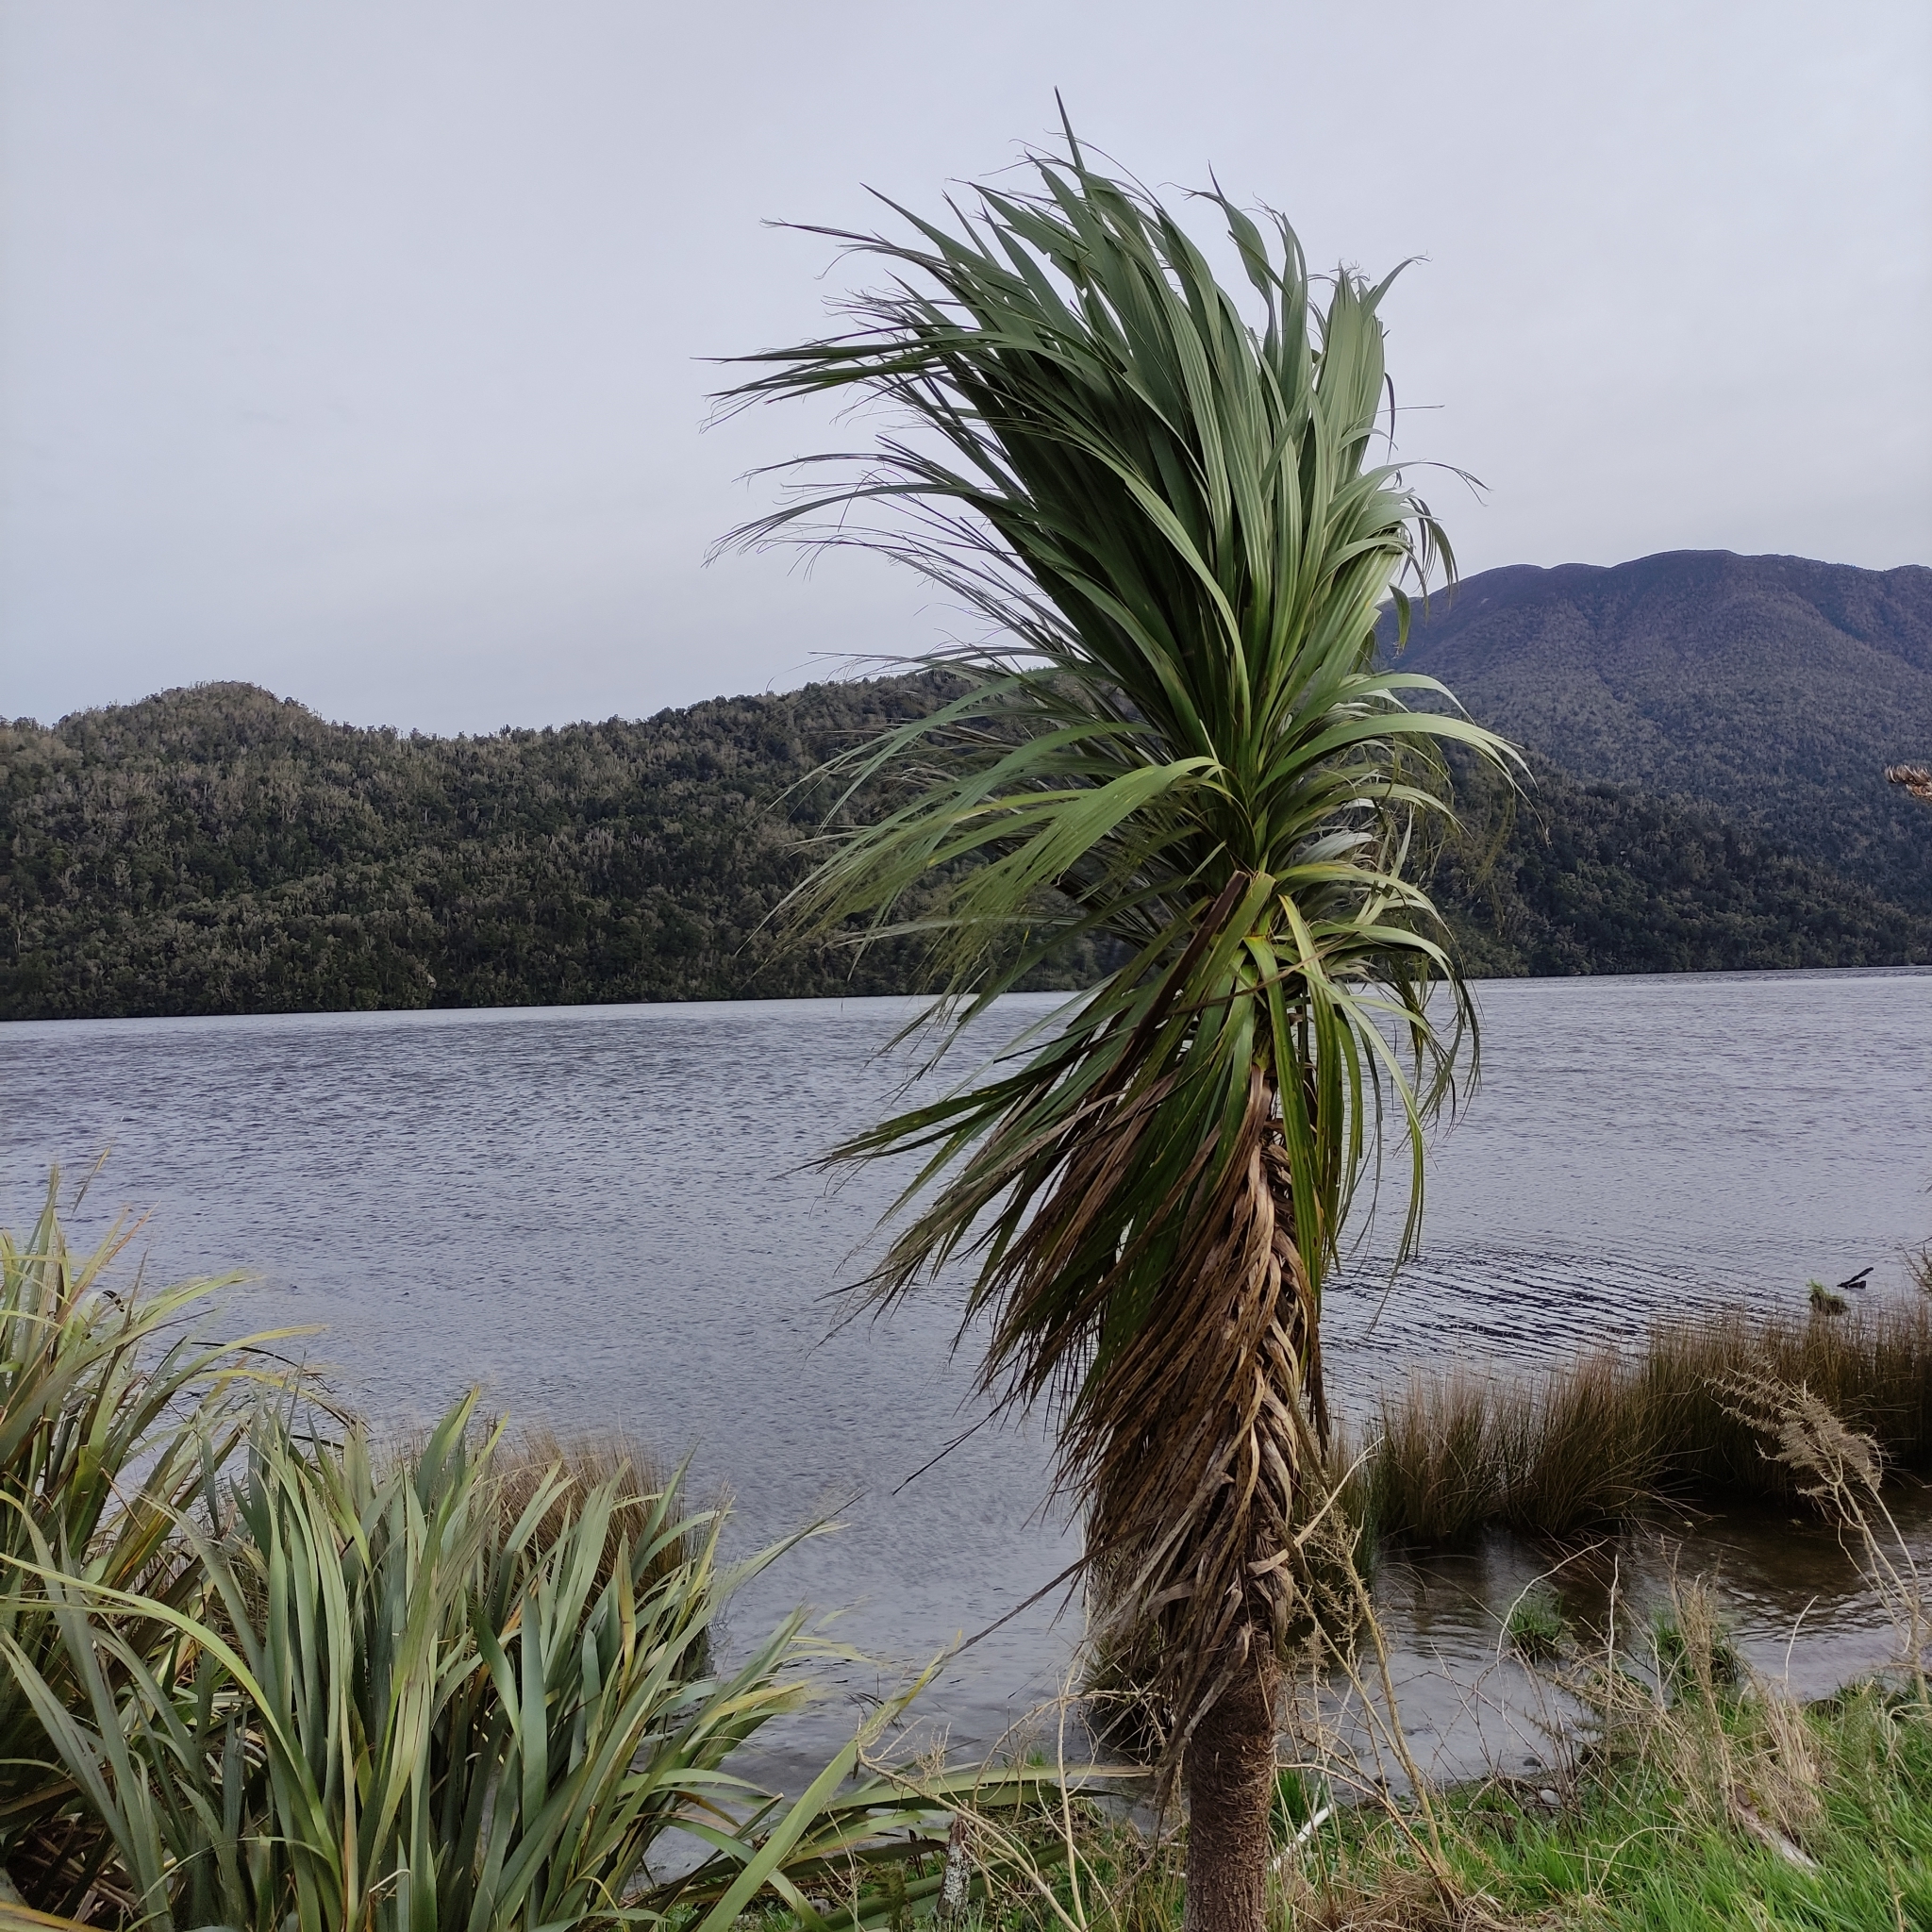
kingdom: Plantae
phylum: Tracheophyta
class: Liliopsida
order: Asparagales
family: Asparagaceae
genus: Cordyline
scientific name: Cordyline australis
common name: Cabbage-palm
